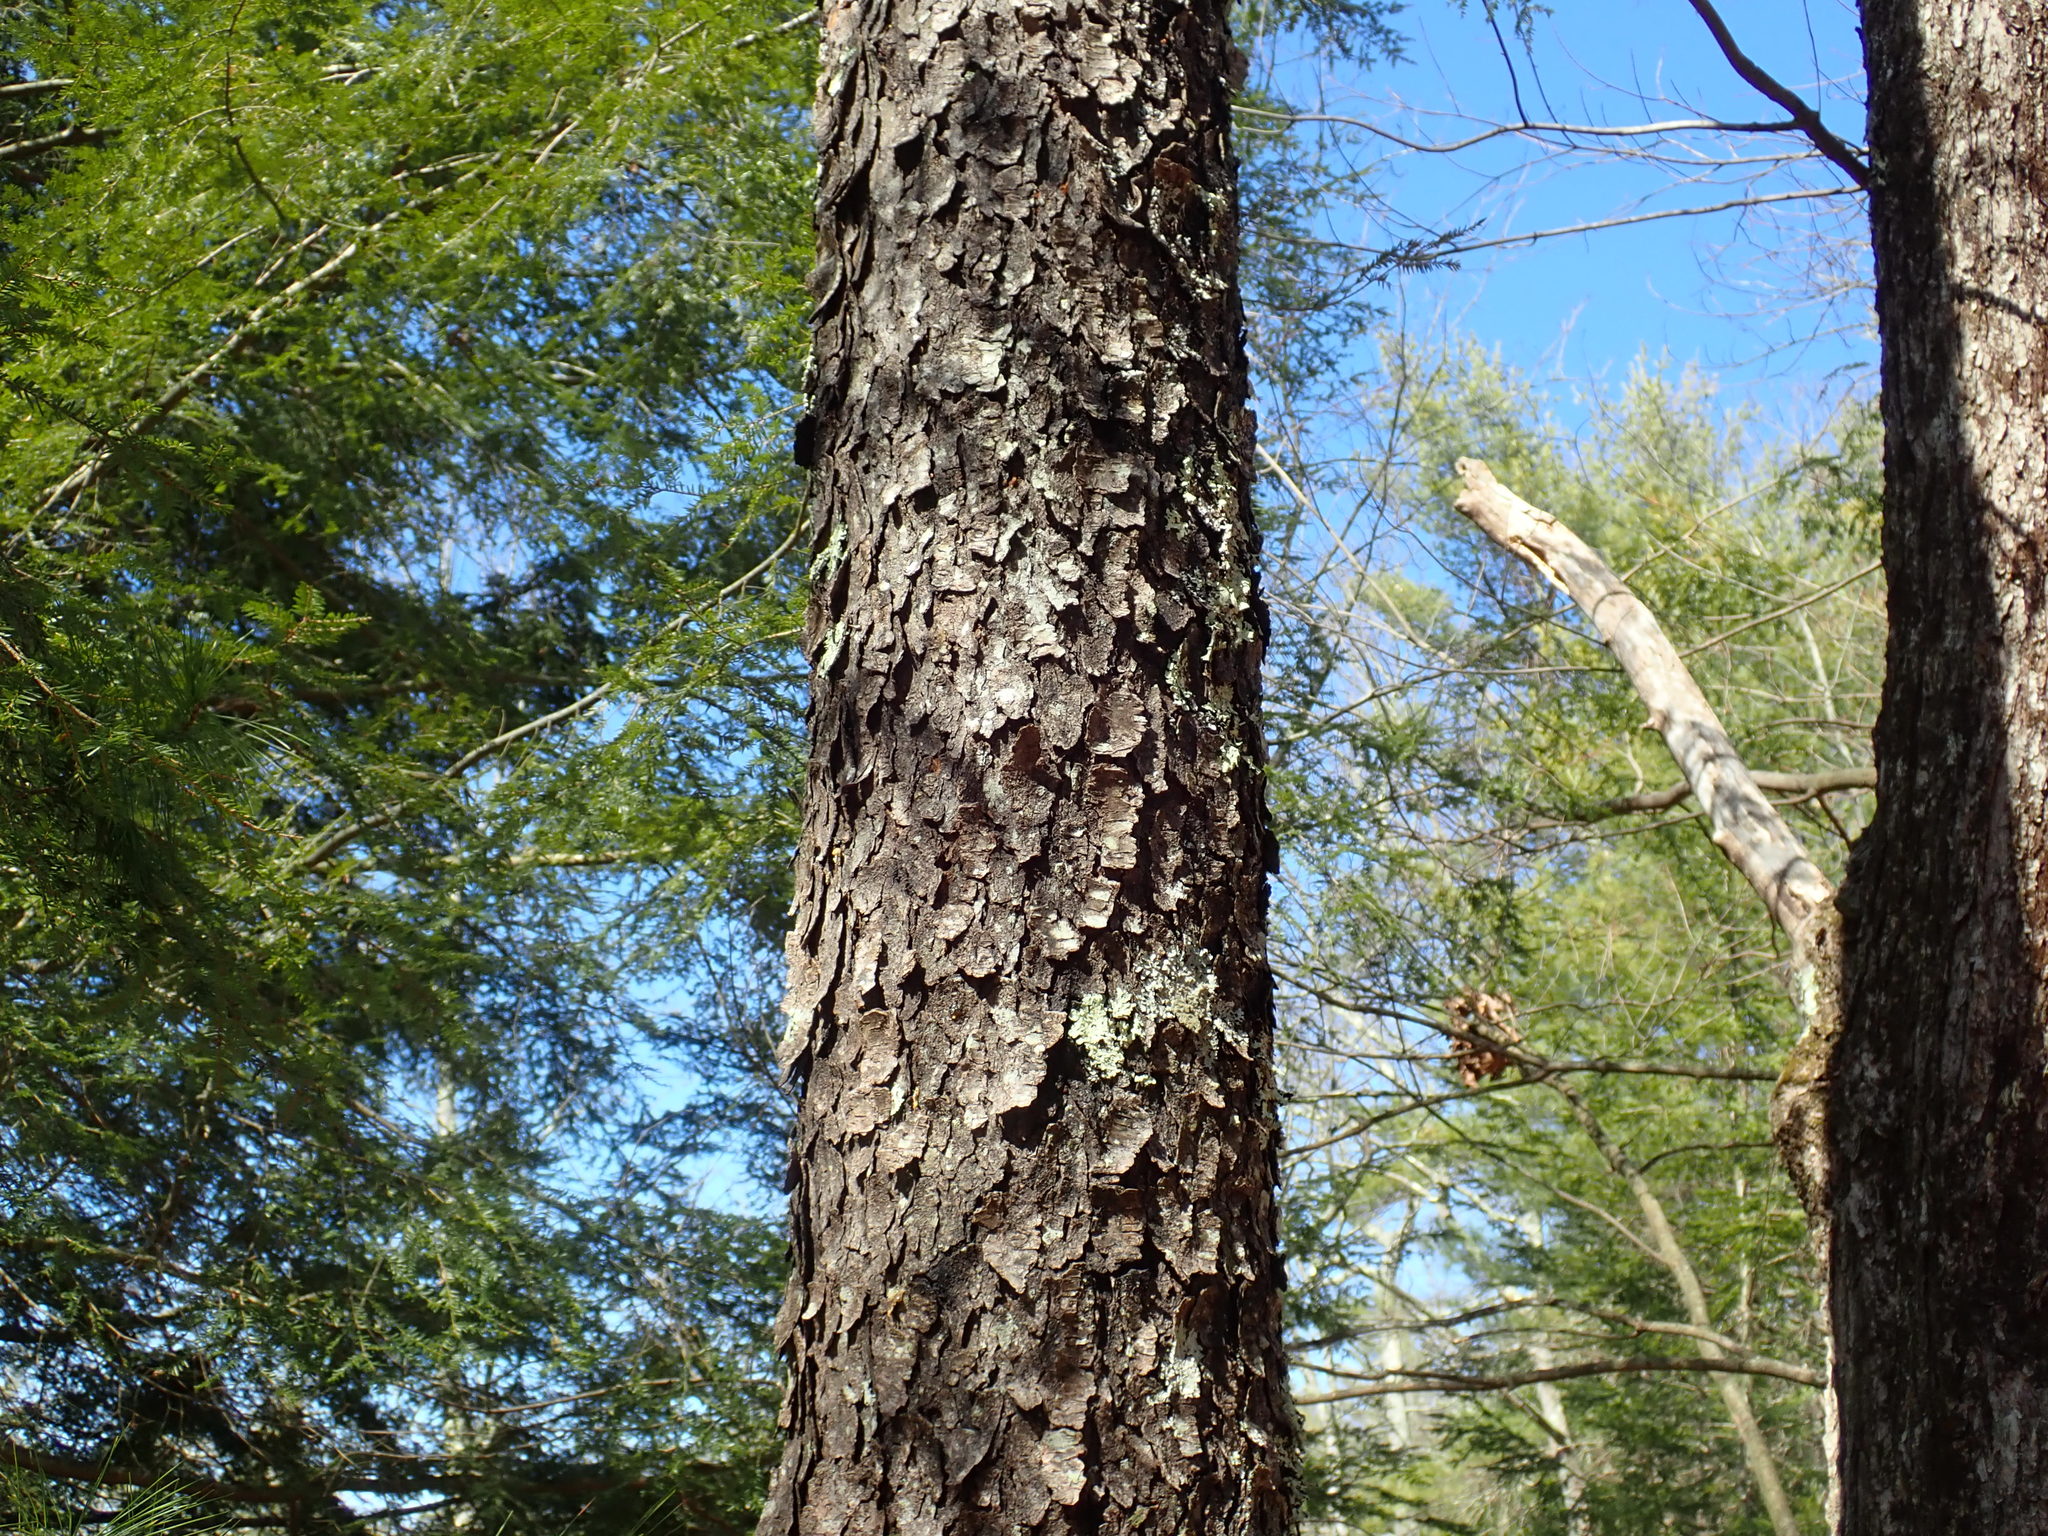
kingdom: Plantae
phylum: Tracheophyta
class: Magnoliopsida
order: Rosales
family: Rosaceae
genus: Prunus
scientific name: Prunus serotina
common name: Black cherry
